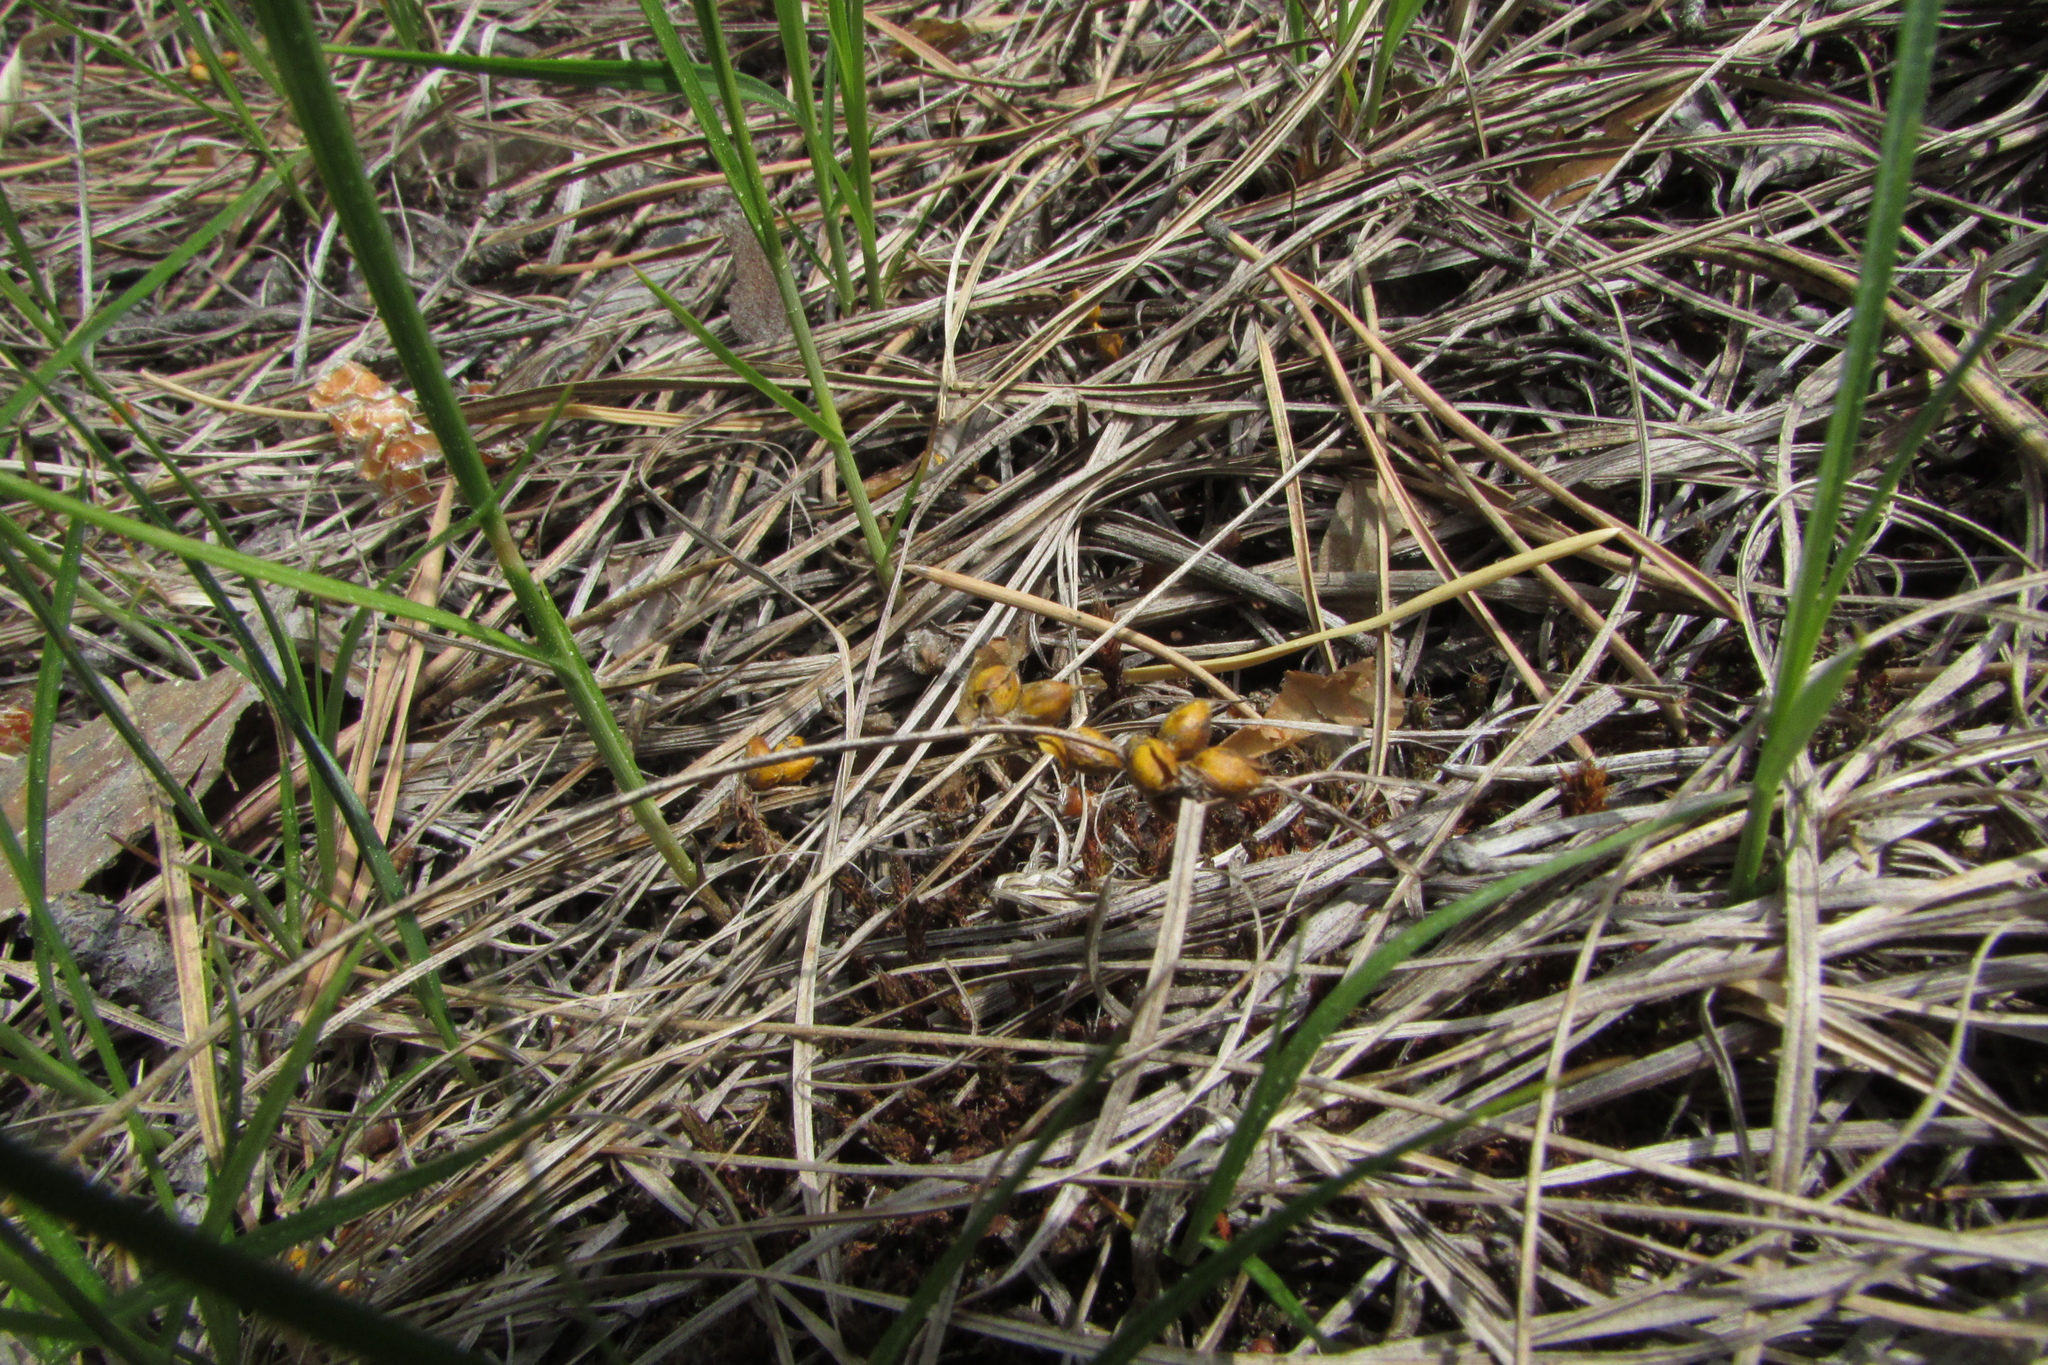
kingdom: Plantae
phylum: Tracheophyta
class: Liliopsida
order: Poales
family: Cyperaceae
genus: Carex
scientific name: Carex supina
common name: Lying-back sedge
